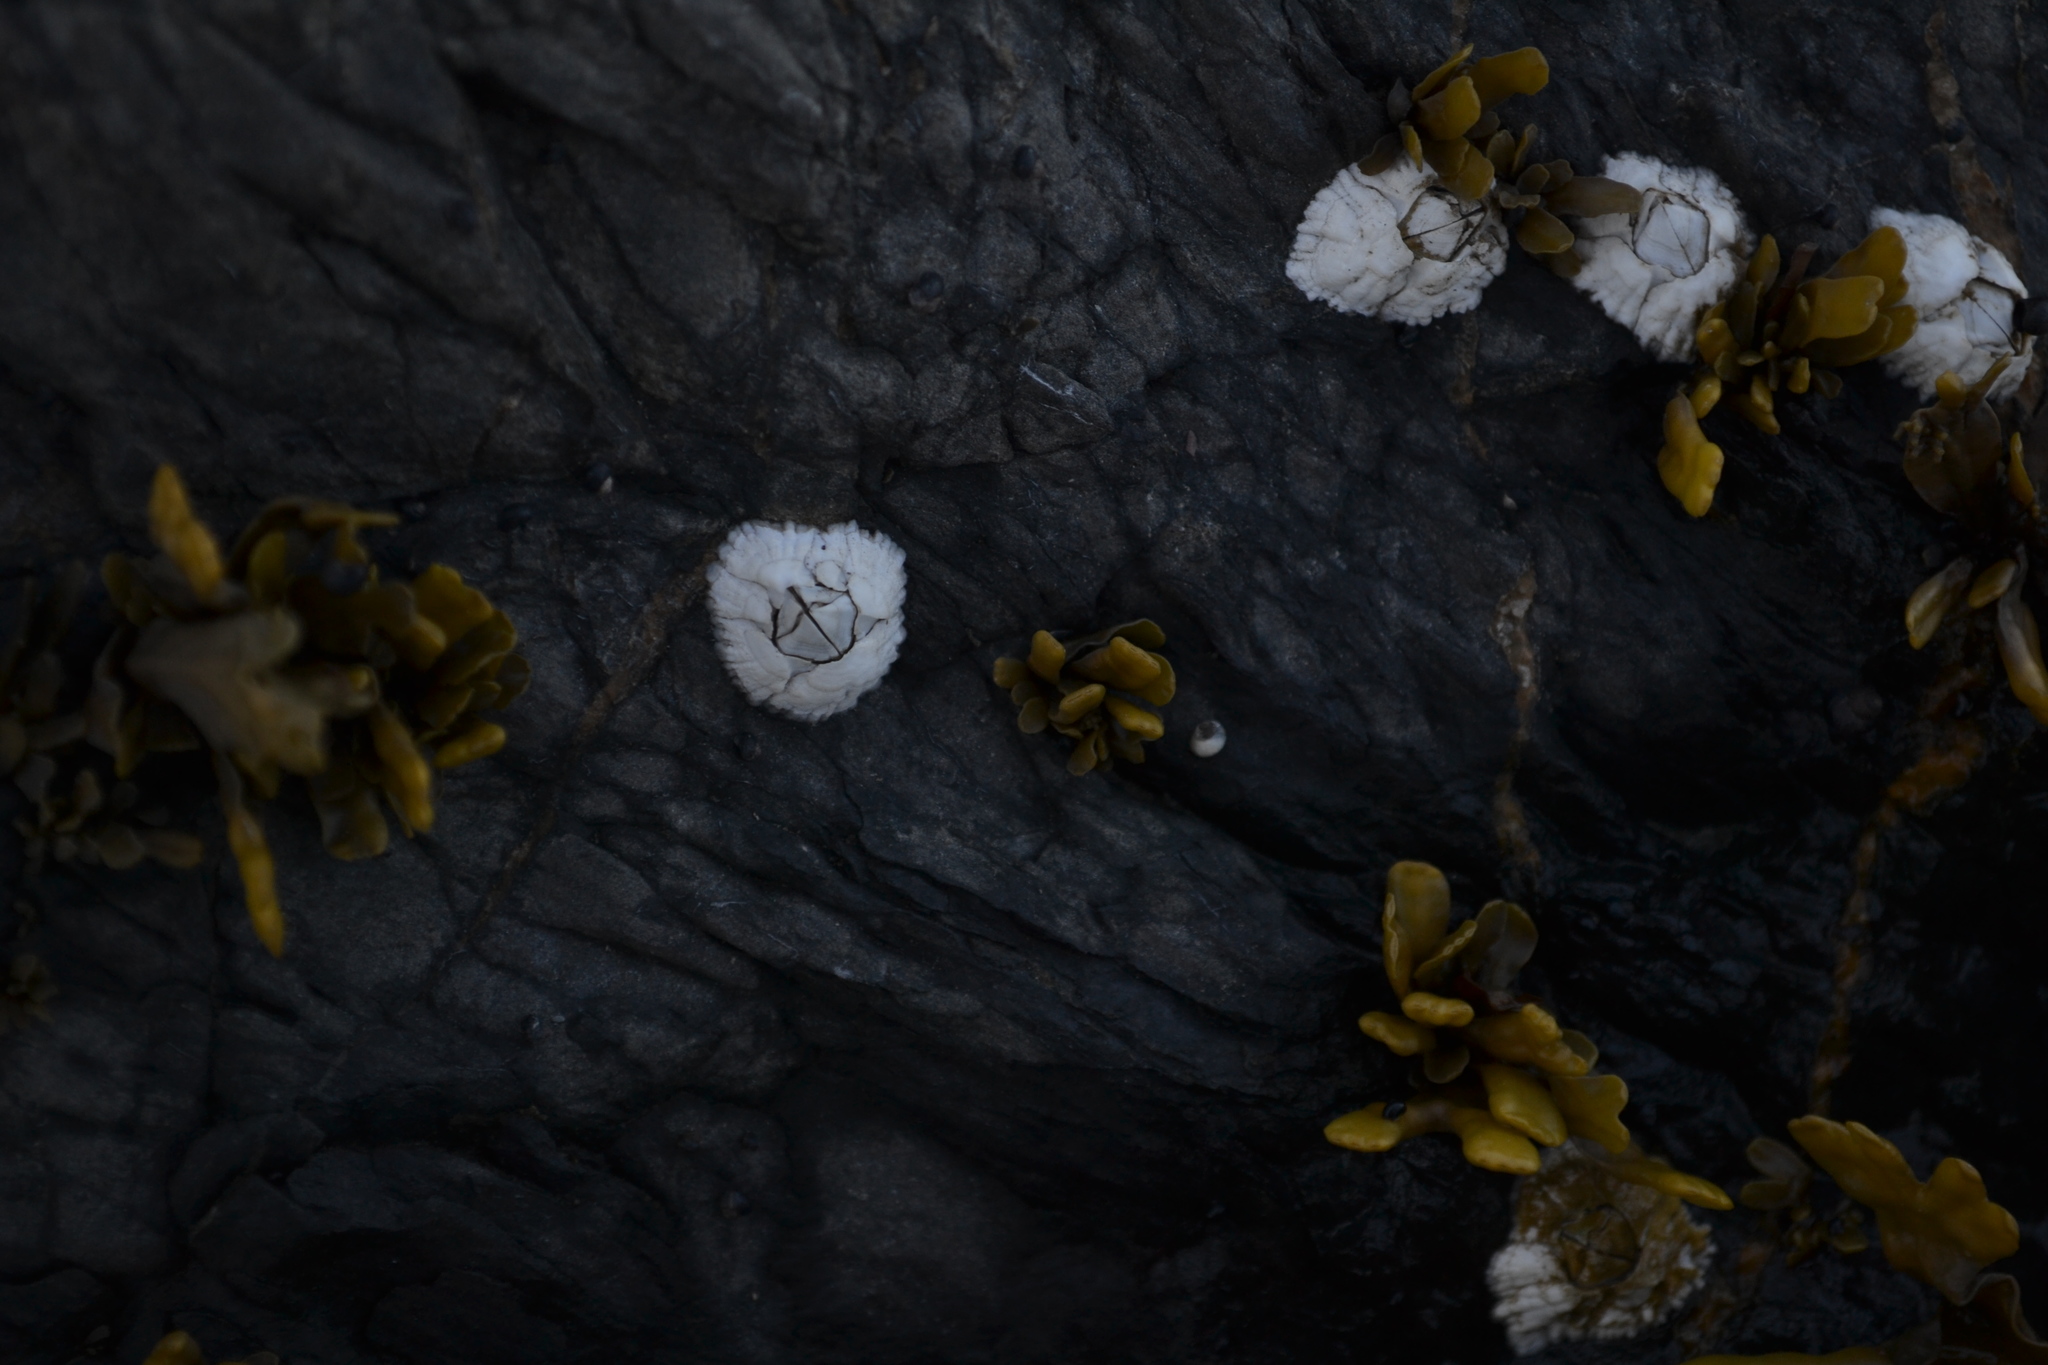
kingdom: Animalia
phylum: Arthropoda
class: Maxillopoda
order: Sessilia
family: Archaeobalanidae
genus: Semibalanus
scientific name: Semibalanus balanoides
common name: Acorn barnacle
